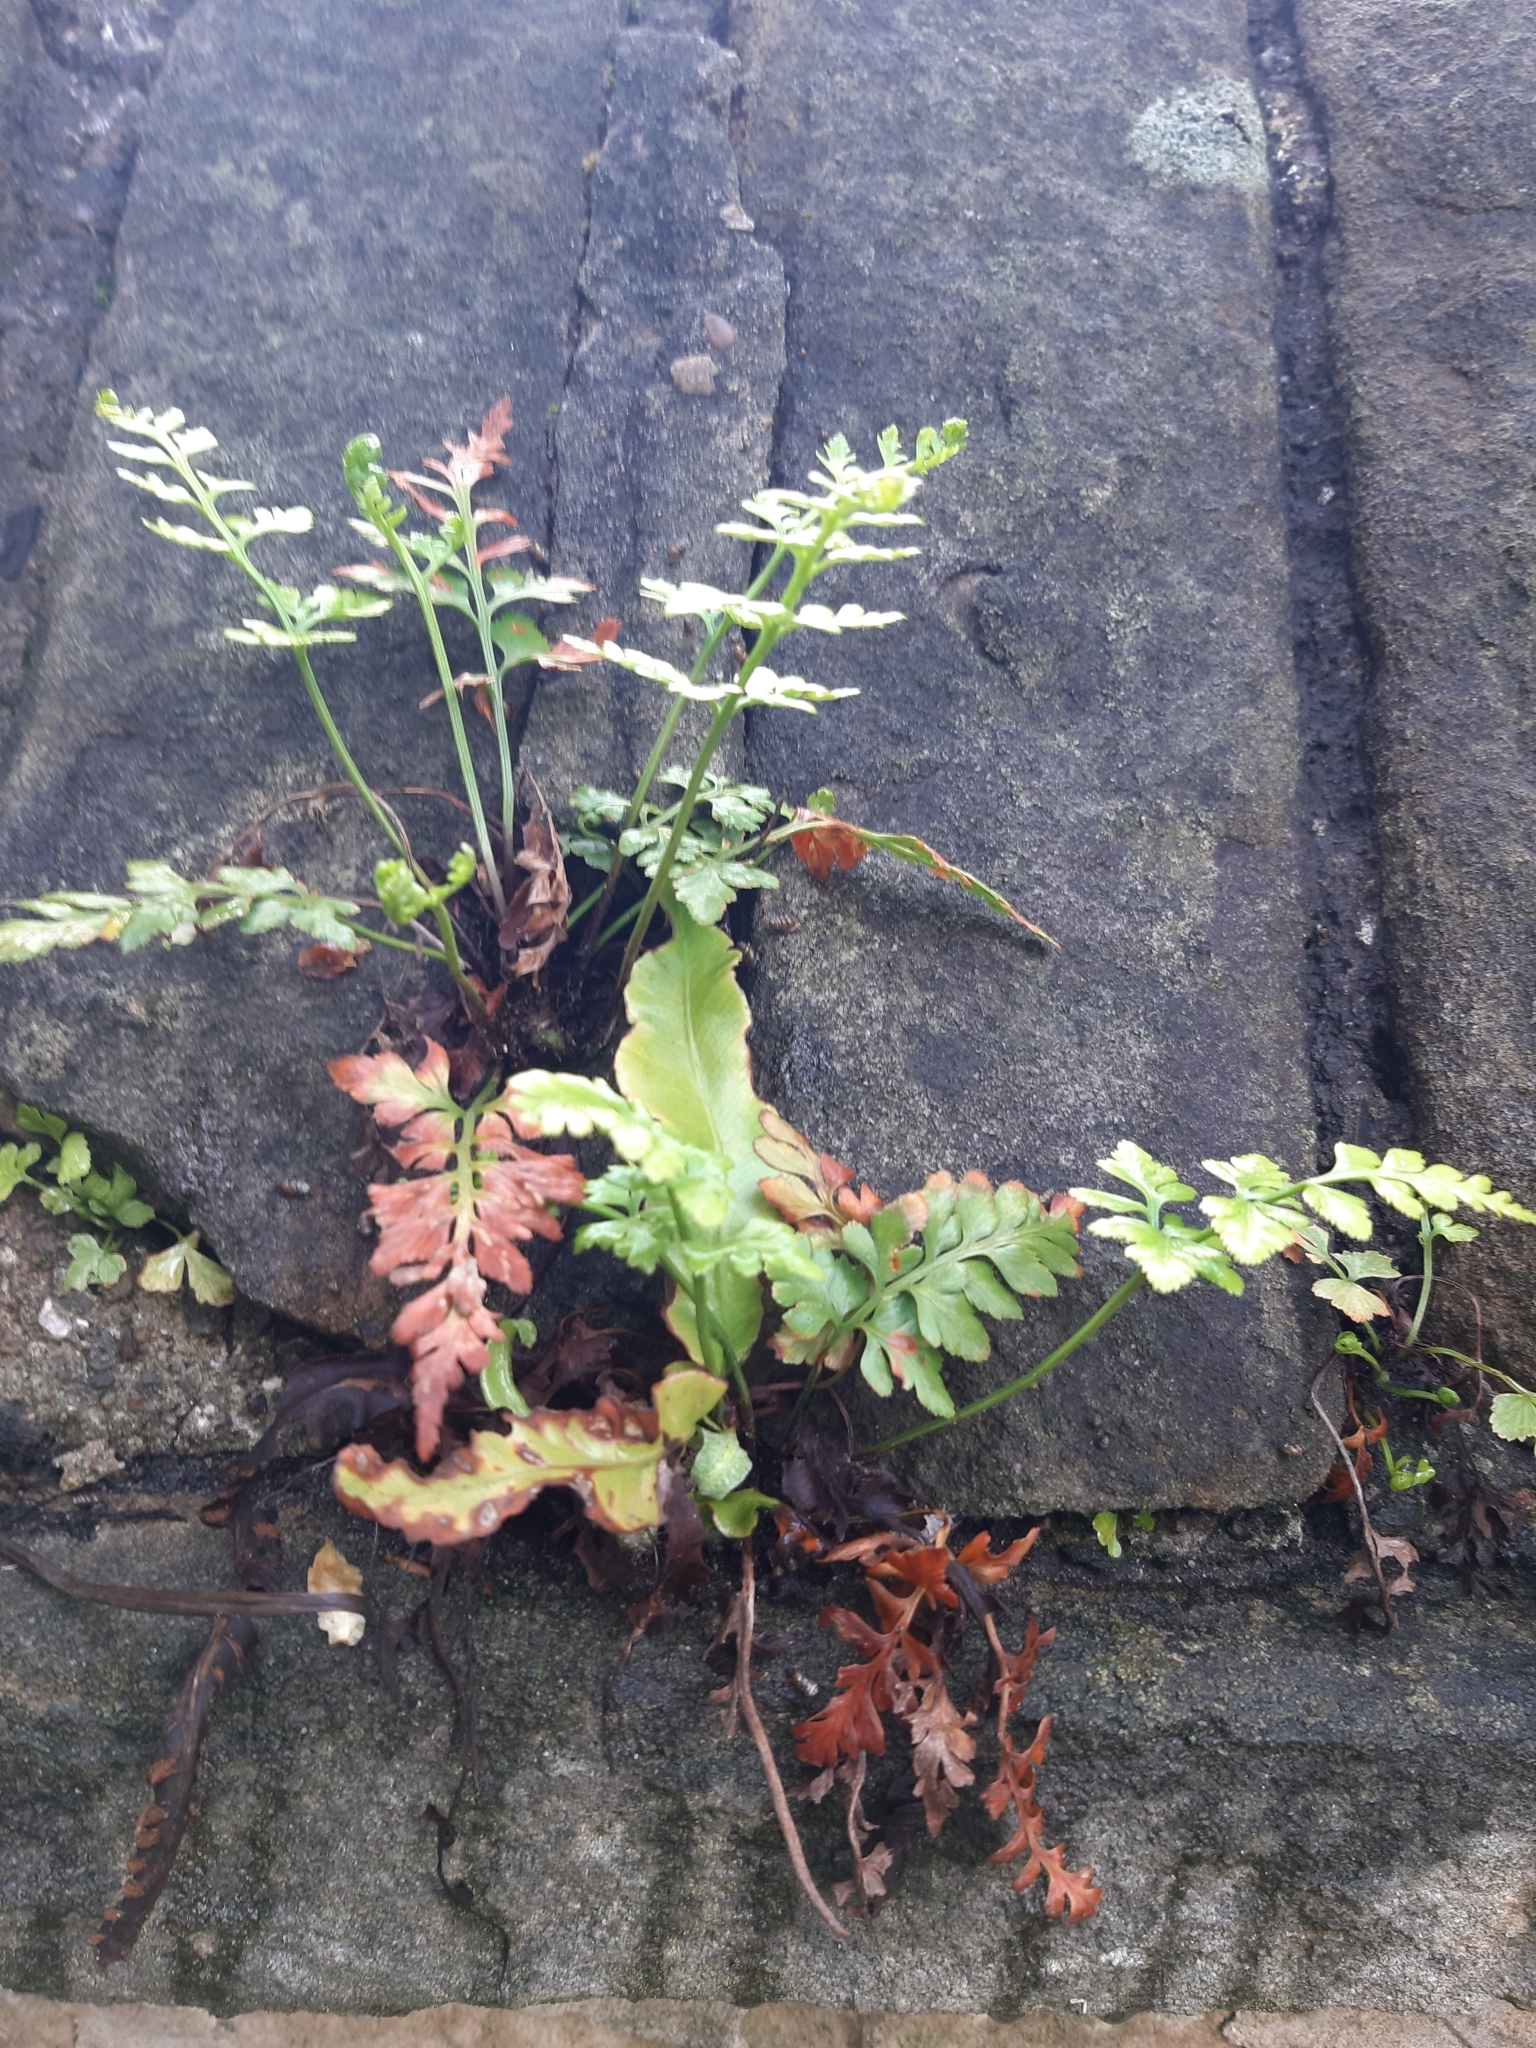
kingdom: Plantae
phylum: Tracheophyta
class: Polypodiopsida
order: Polypodiales
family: Aspleniaceae
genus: Asplenium
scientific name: Asplenium adiantum-nigrum
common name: Black spleenwort
